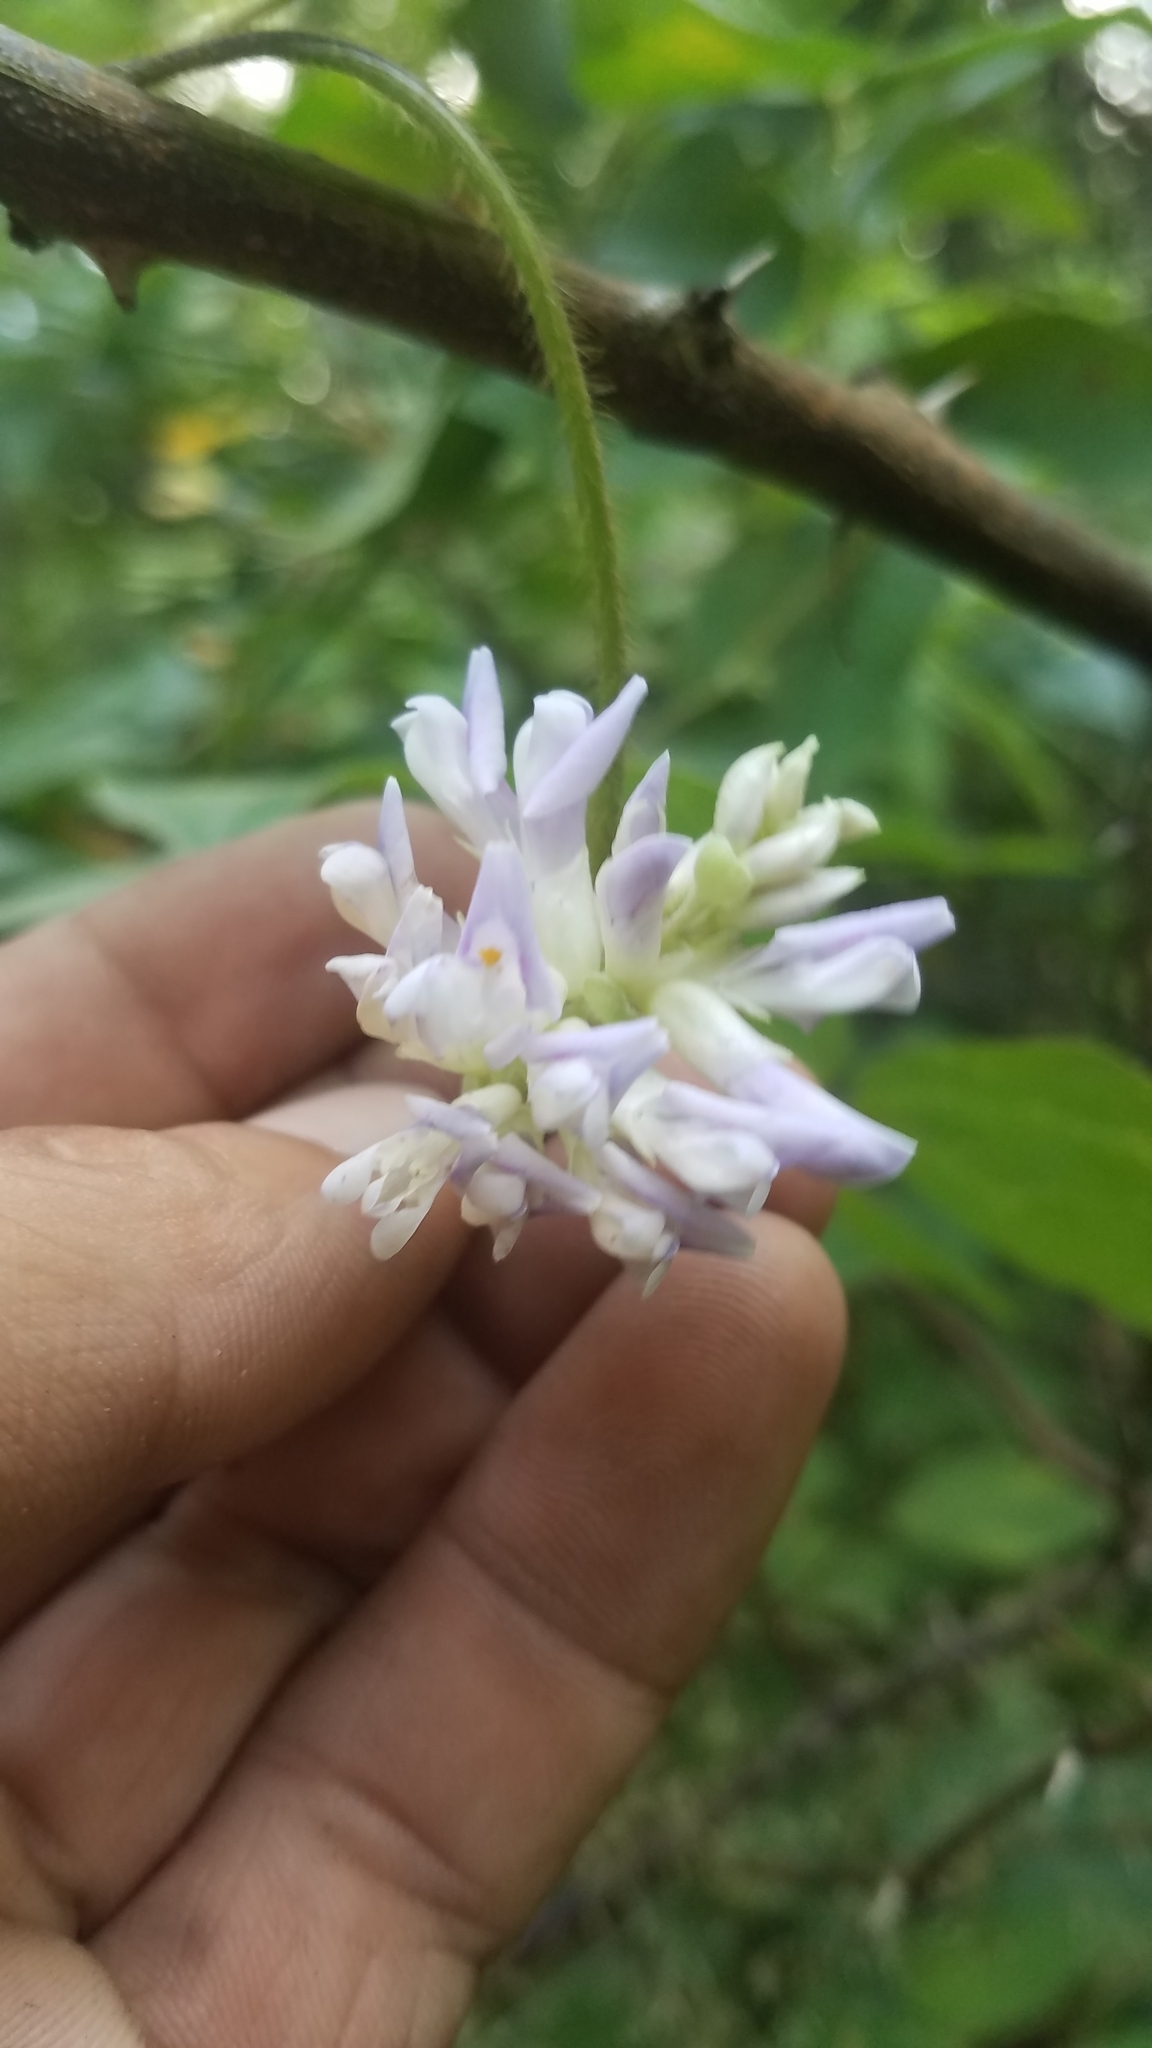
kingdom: Plantae
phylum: Tracheophyta
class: Magnoliopsida
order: Fabales
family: Fabaceae
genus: Amphicarpaea
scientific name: Amphicarpaea bracteata
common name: American hog peanut
